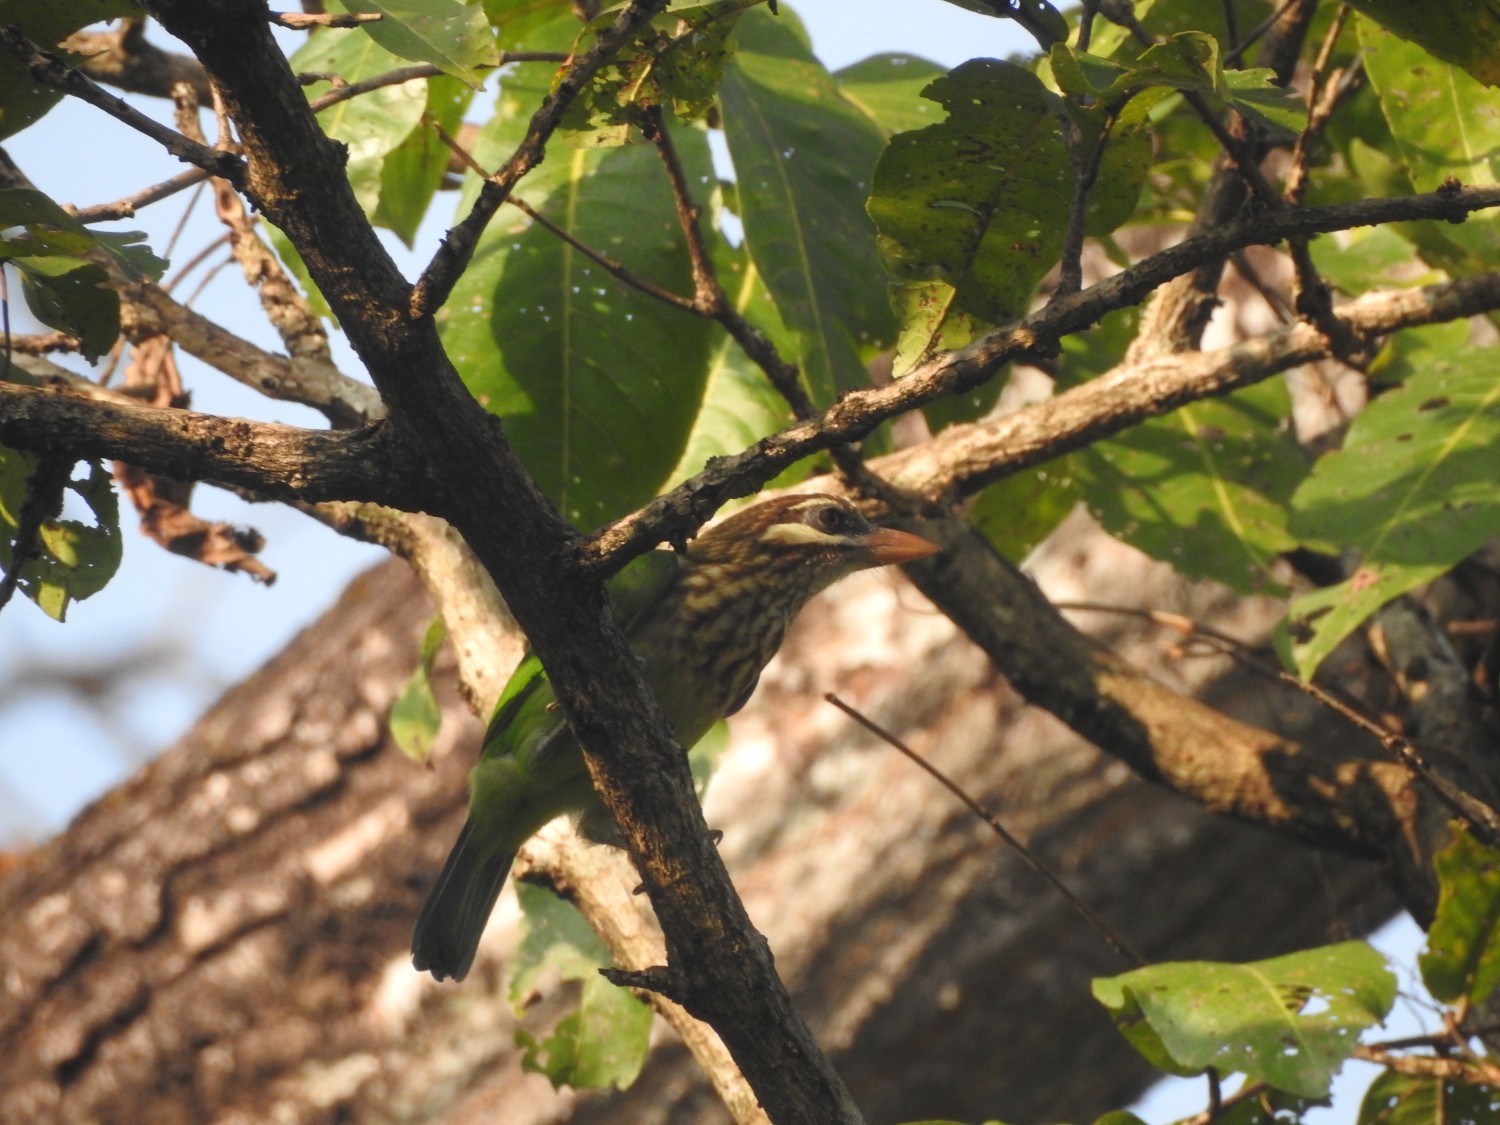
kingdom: Animalia
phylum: Chordata
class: Aves
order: Piciformes
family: Megalaimidae
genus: Psilopogon
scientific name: Psilopogon viridis
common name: White-cheeked barbet
